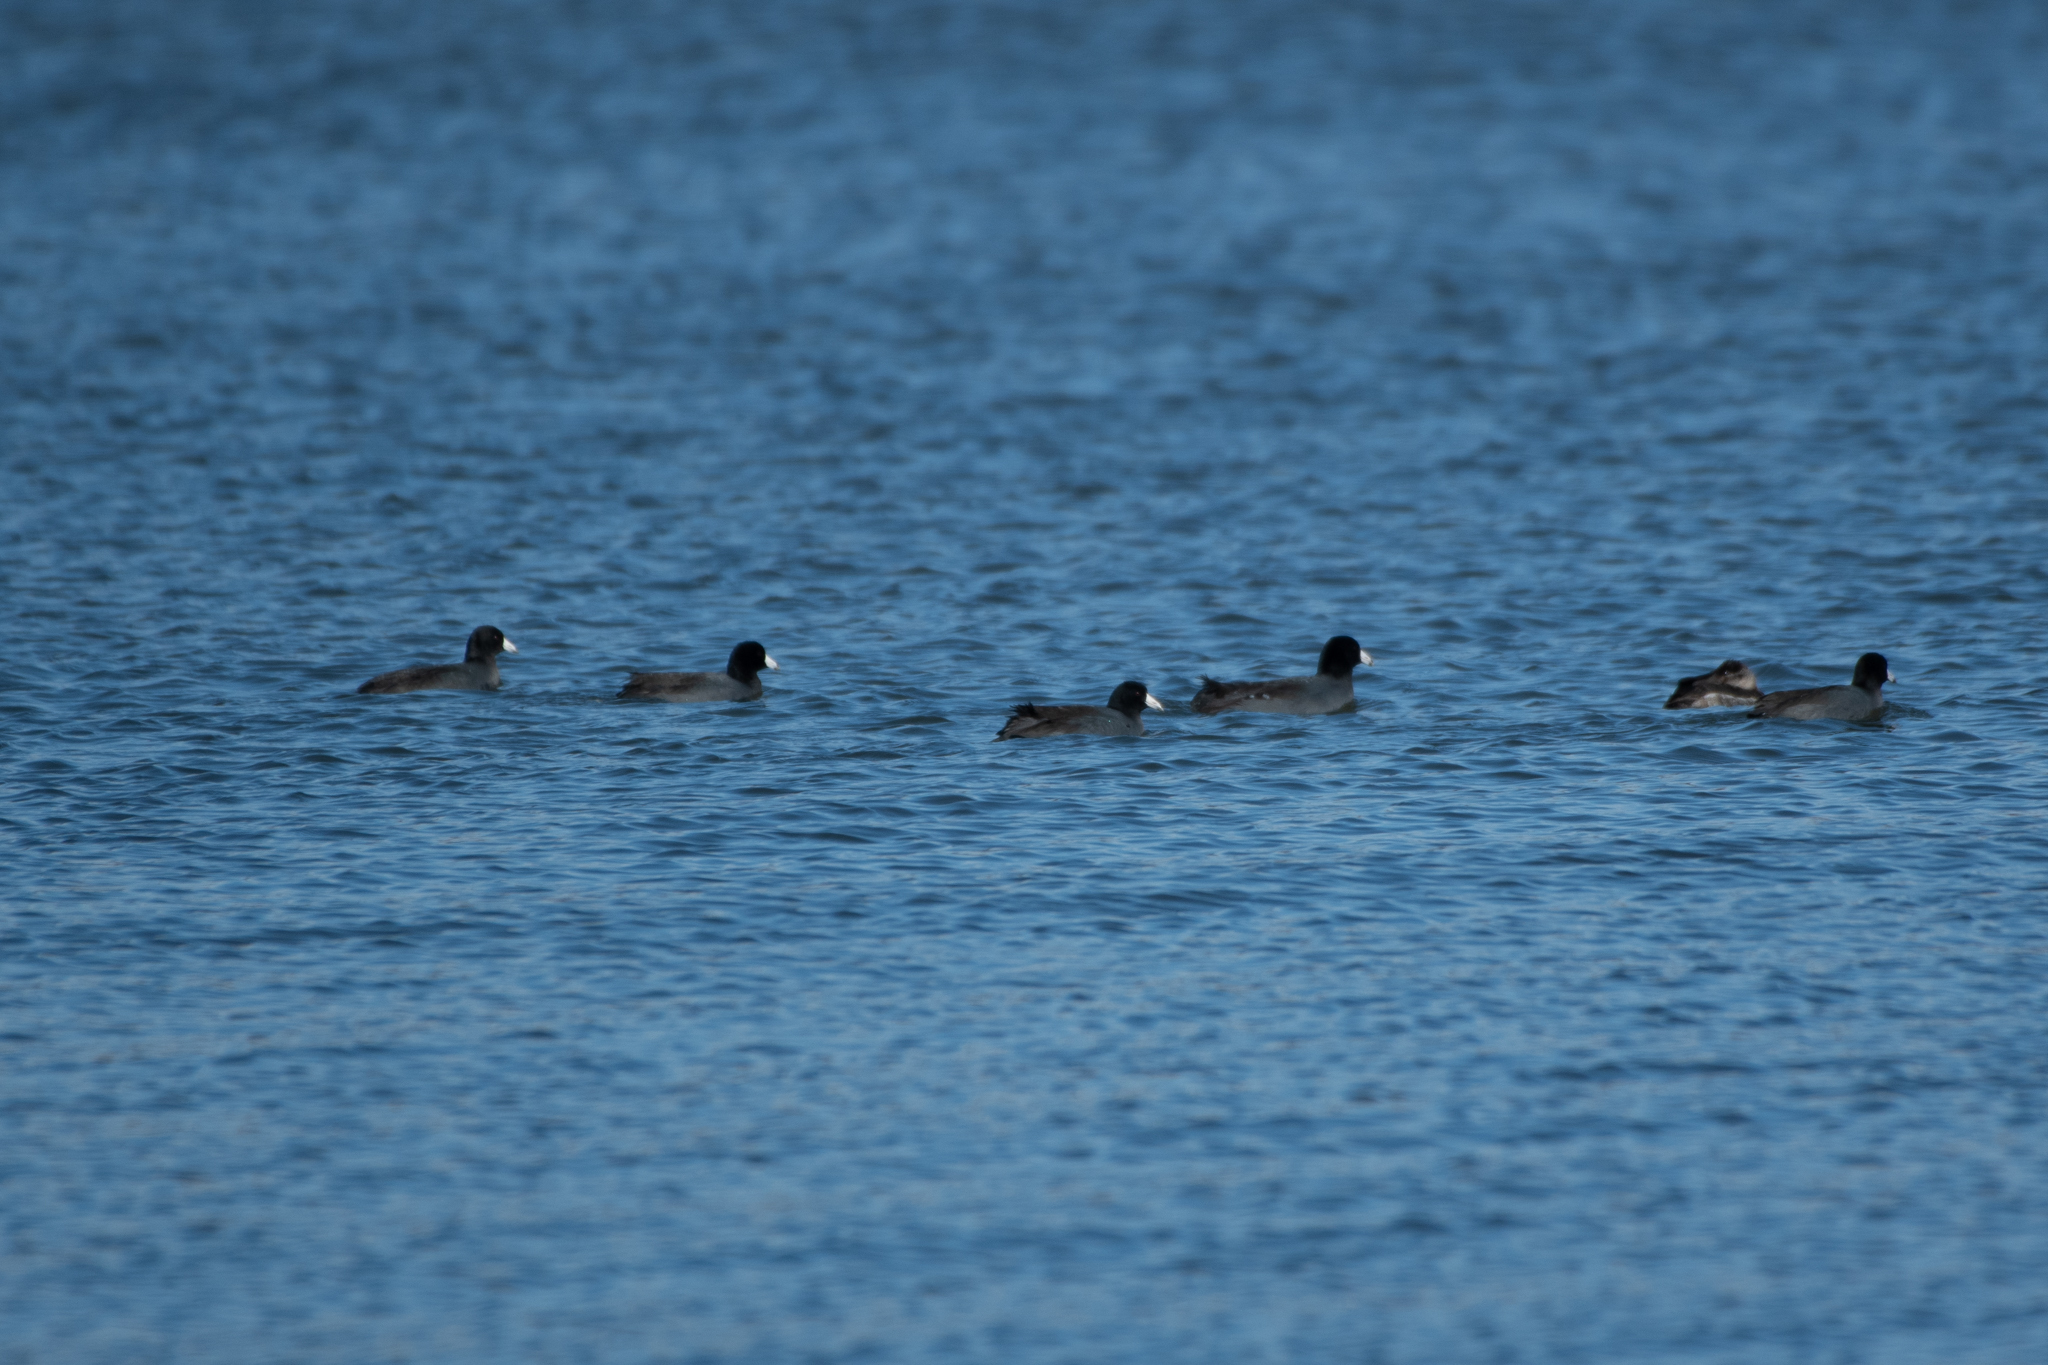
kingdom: Animalia
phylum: Chordata
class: Aves
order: Gruiformes
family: Rallidae
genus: Fulica
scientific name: Fulica americana
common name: American coot
